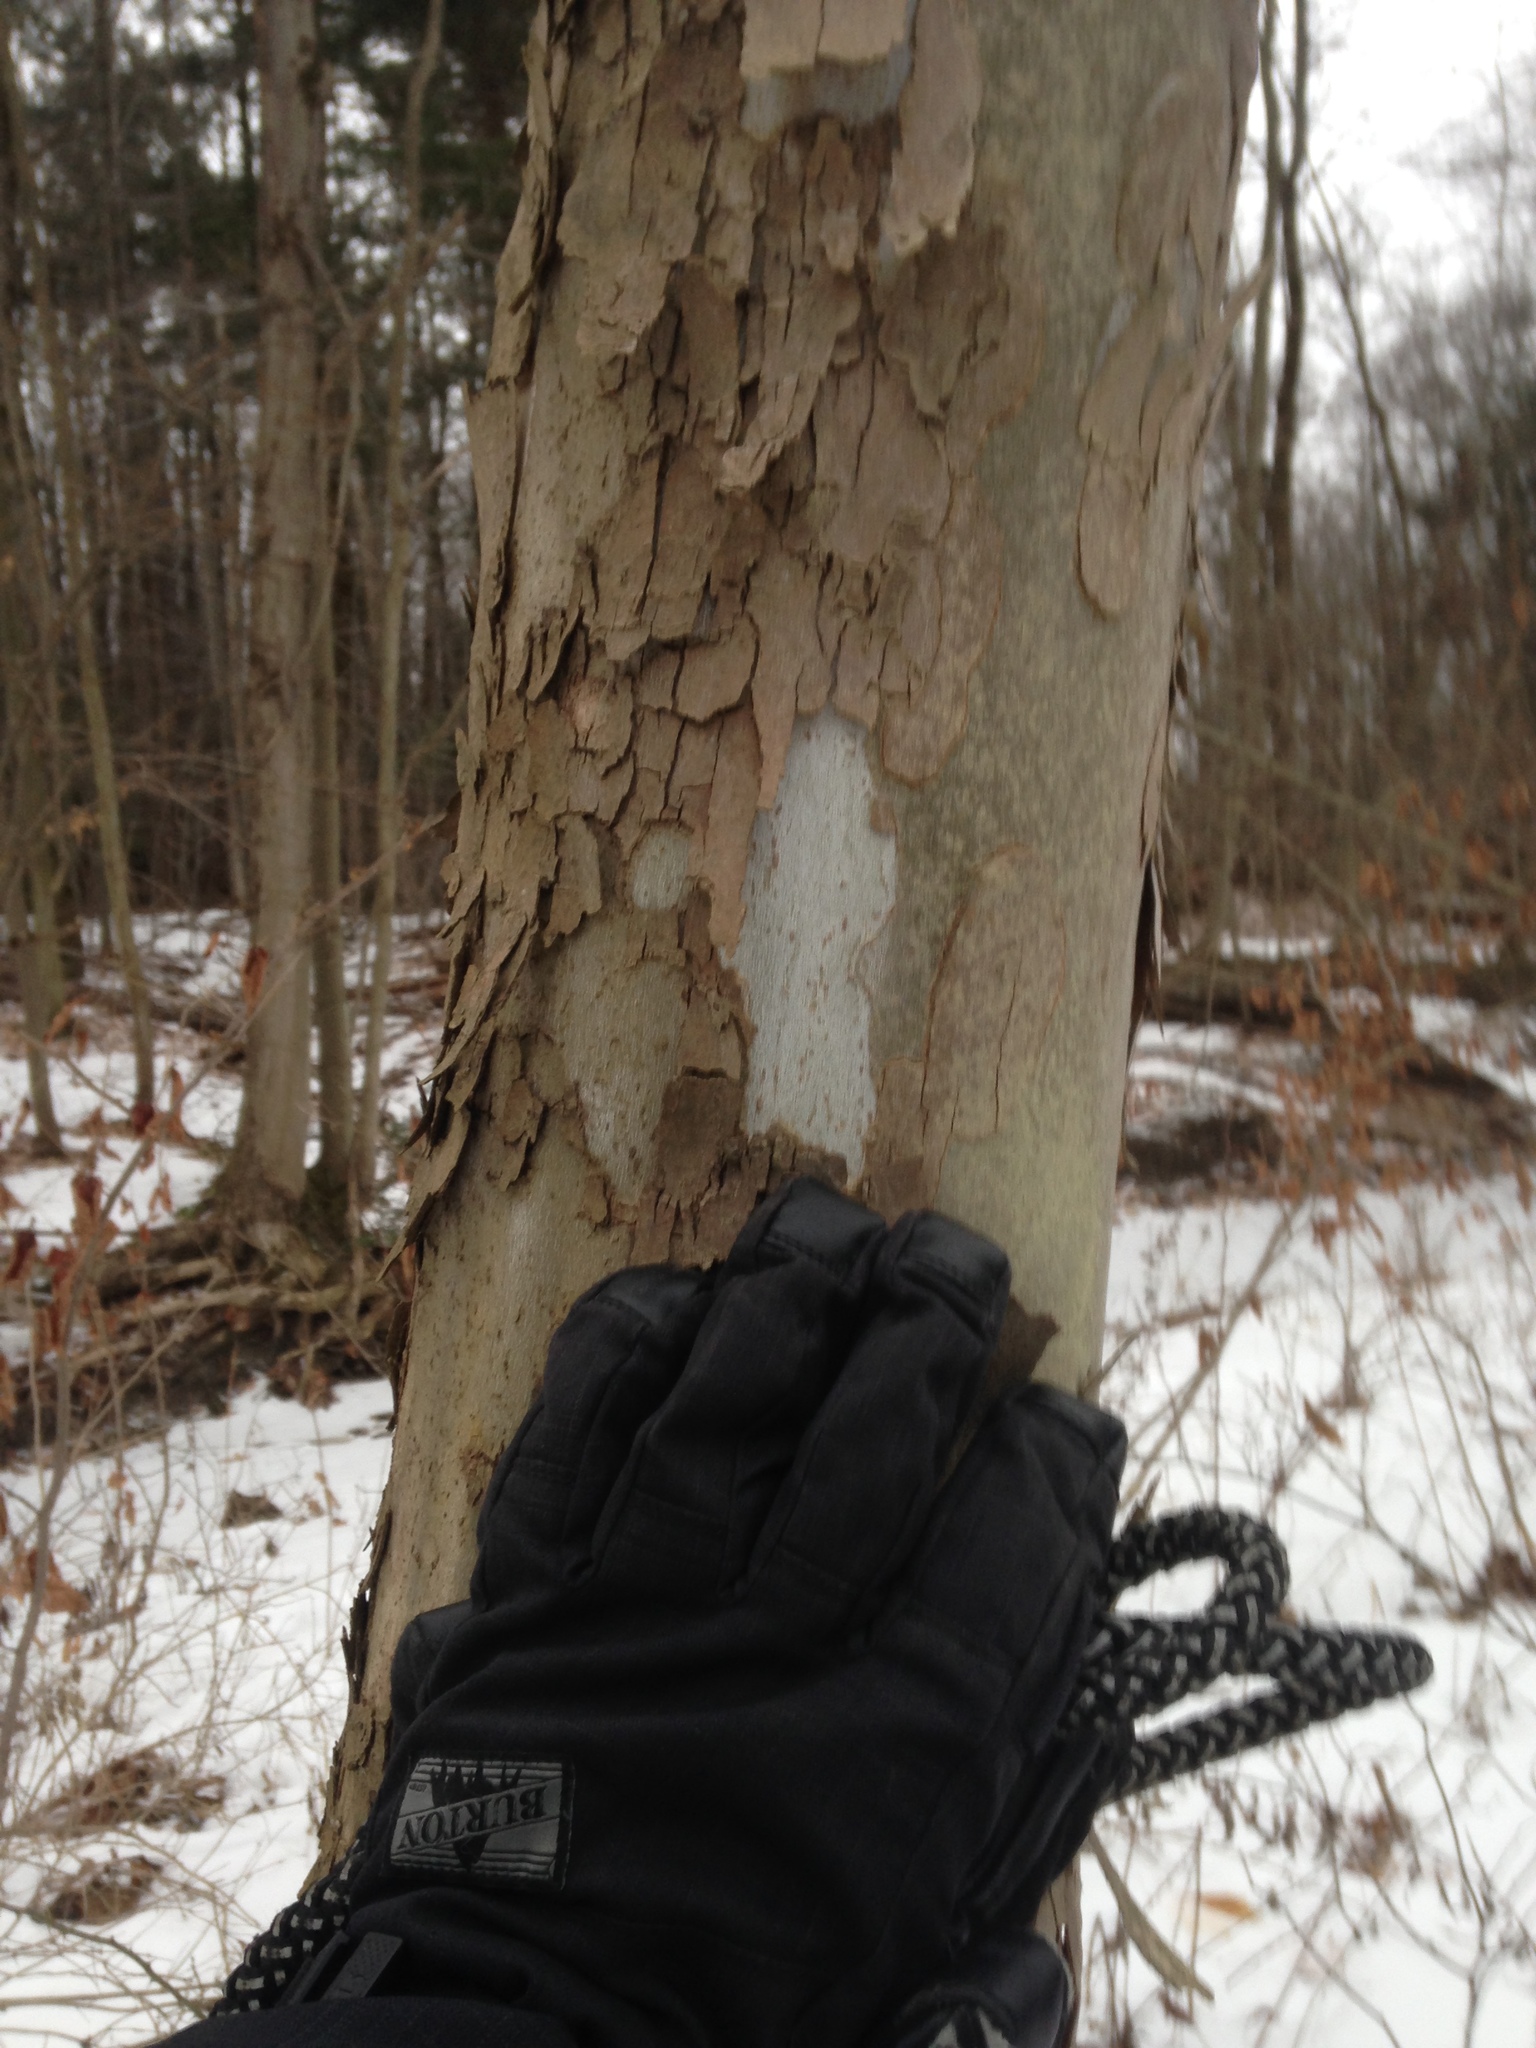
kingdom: Plantae
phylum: Tracheophyta
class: Magnoliopsida
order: Proteales
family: Platanaceae
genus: Platanus
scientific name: Platanus occidentalis
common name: American sycamore
